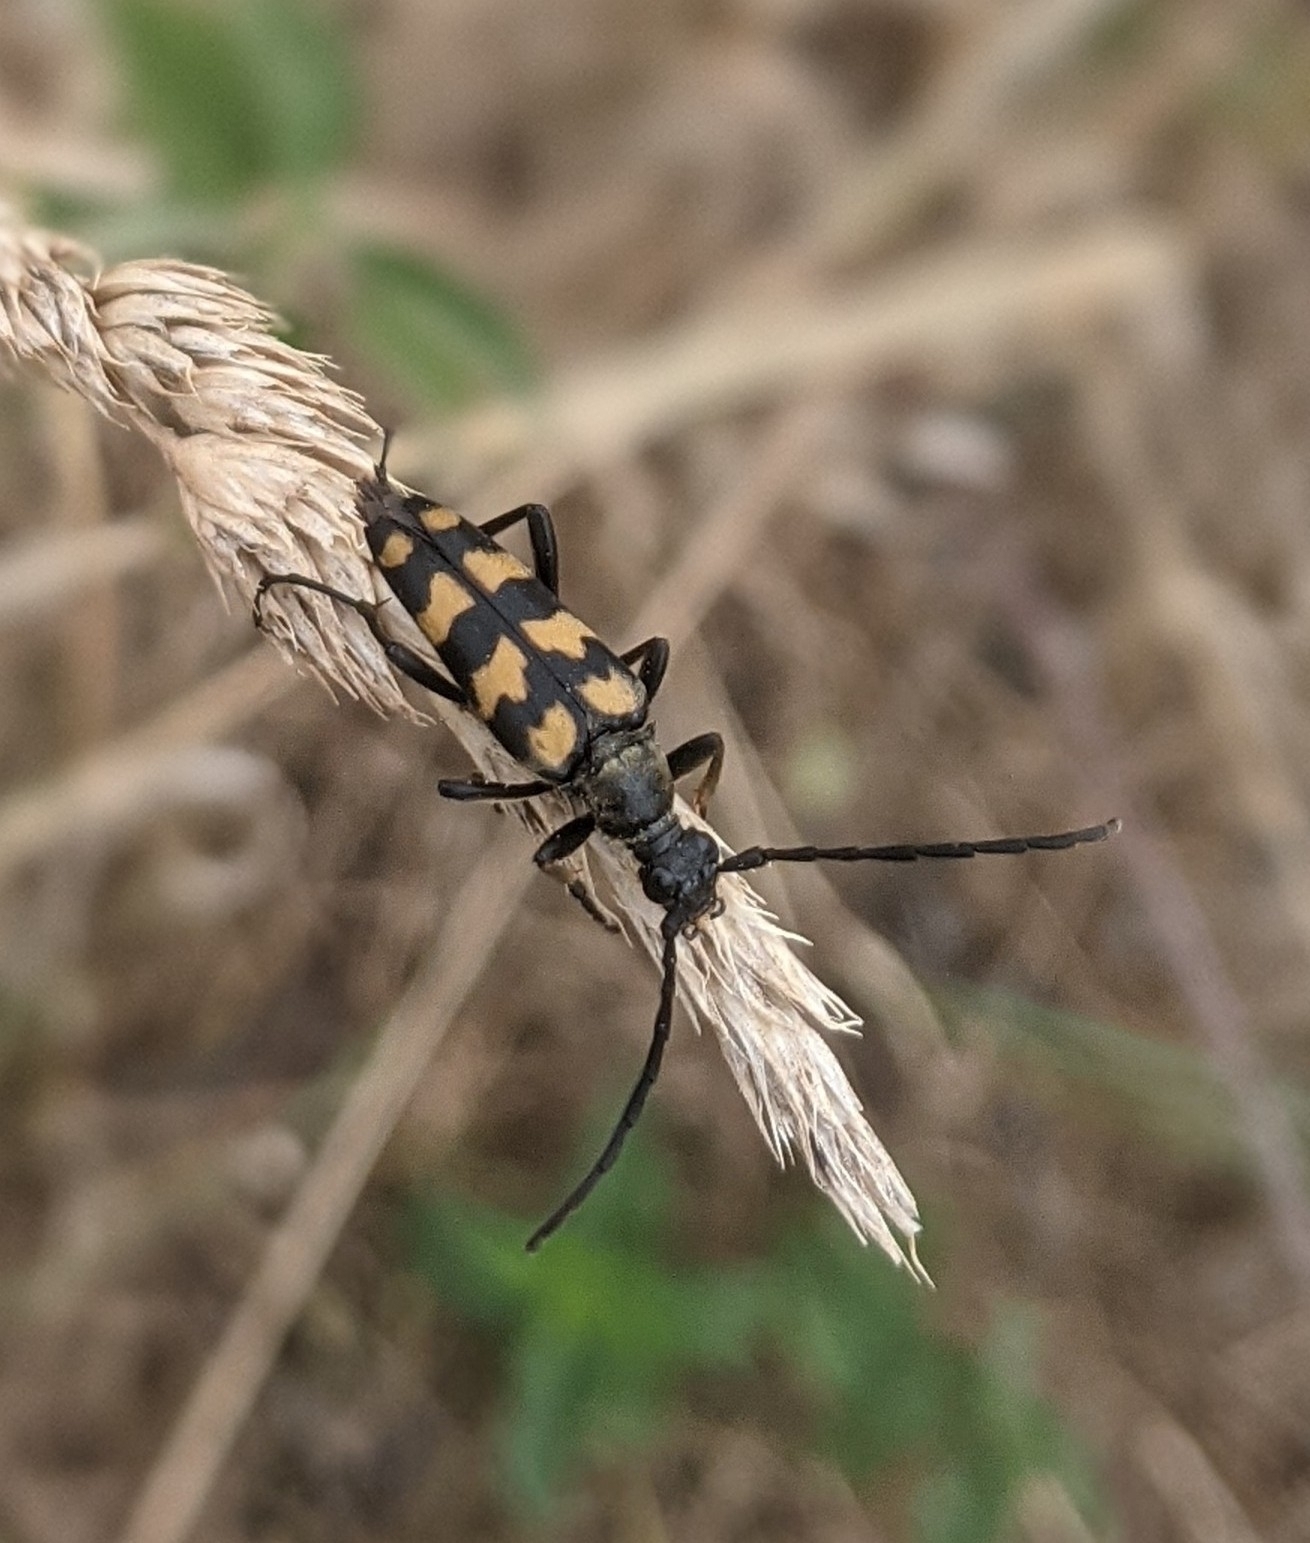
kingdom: Animalia
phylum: Arthropoda
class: Insecta
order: Coleoptera
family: Cerambycidae
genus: Leptura
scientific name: Leptura quadrifasciata
